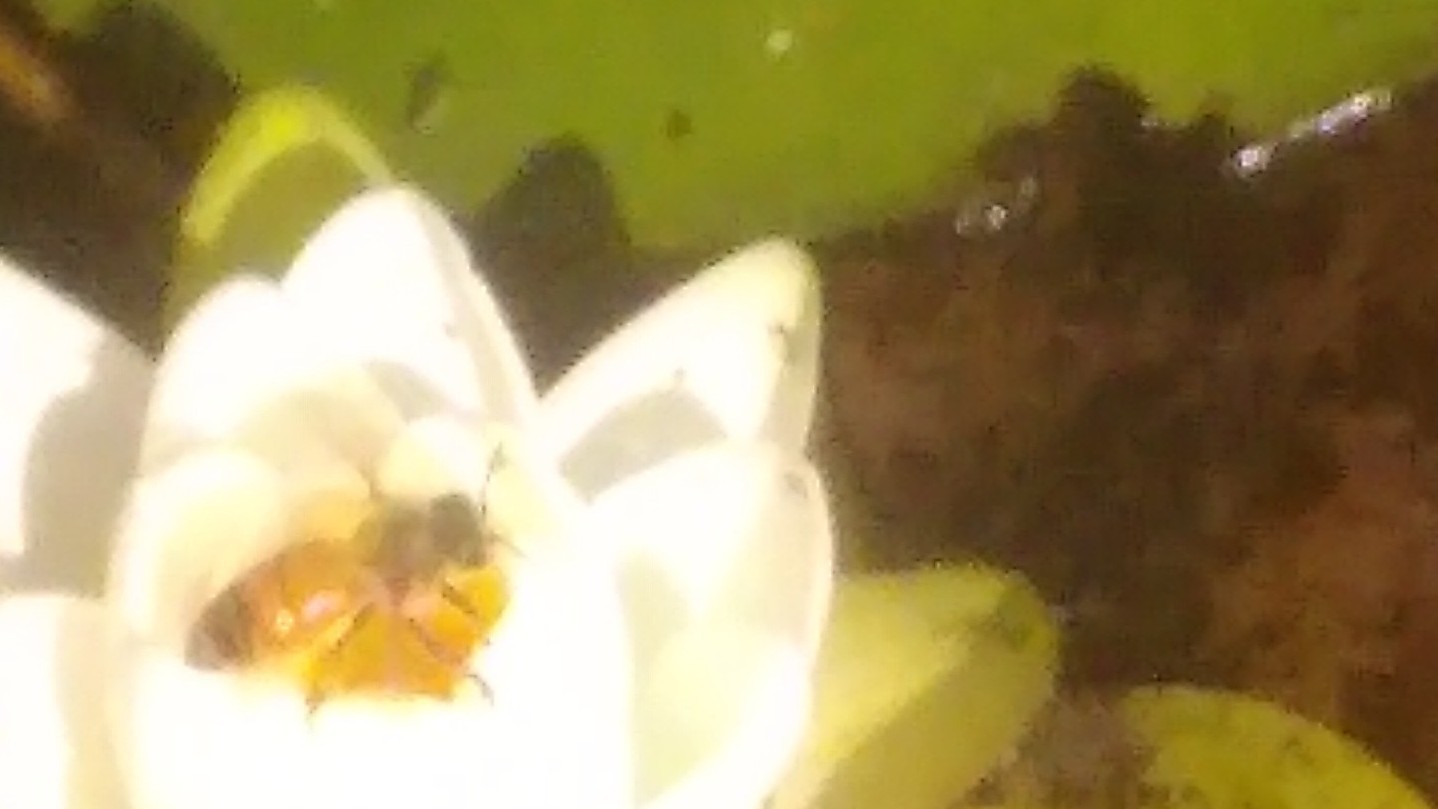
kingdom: Animalia
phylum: Arthropoda
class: Insecta
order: Hymenoptera
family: Apidae
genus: Apis
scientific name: Apis mellifera
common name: Honey bee
